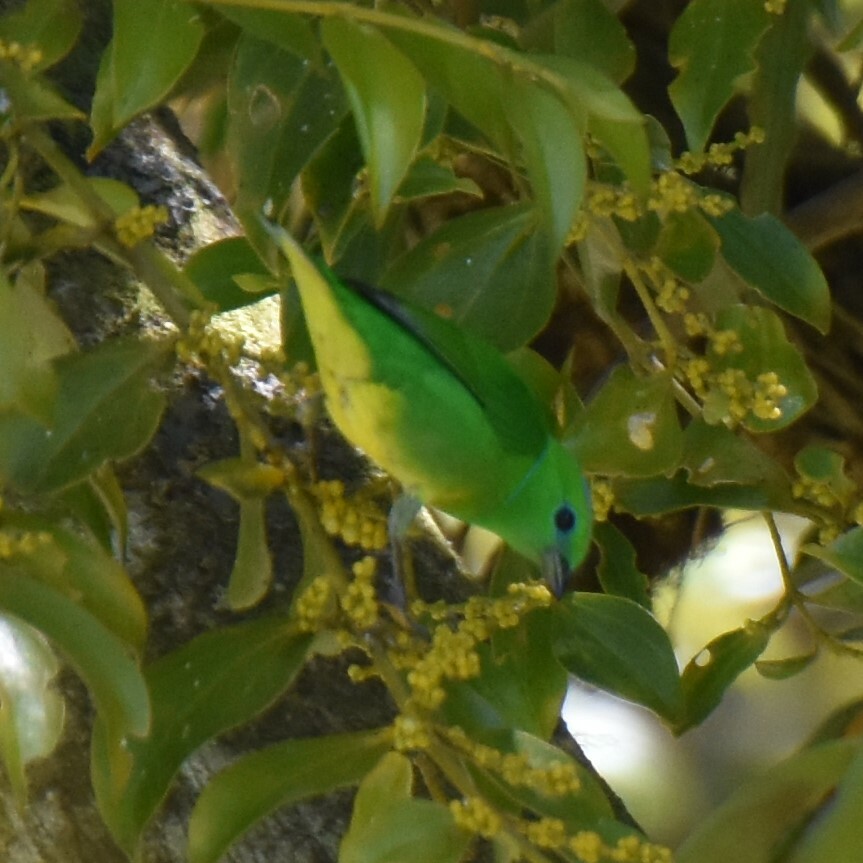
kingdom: Animalia
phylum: Chordata
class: Aves
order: Passeriformes
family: Fringillidae
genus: Chlorophonia
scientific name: Chlorophonia callophrys
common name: Golden-browed chlorophonia
